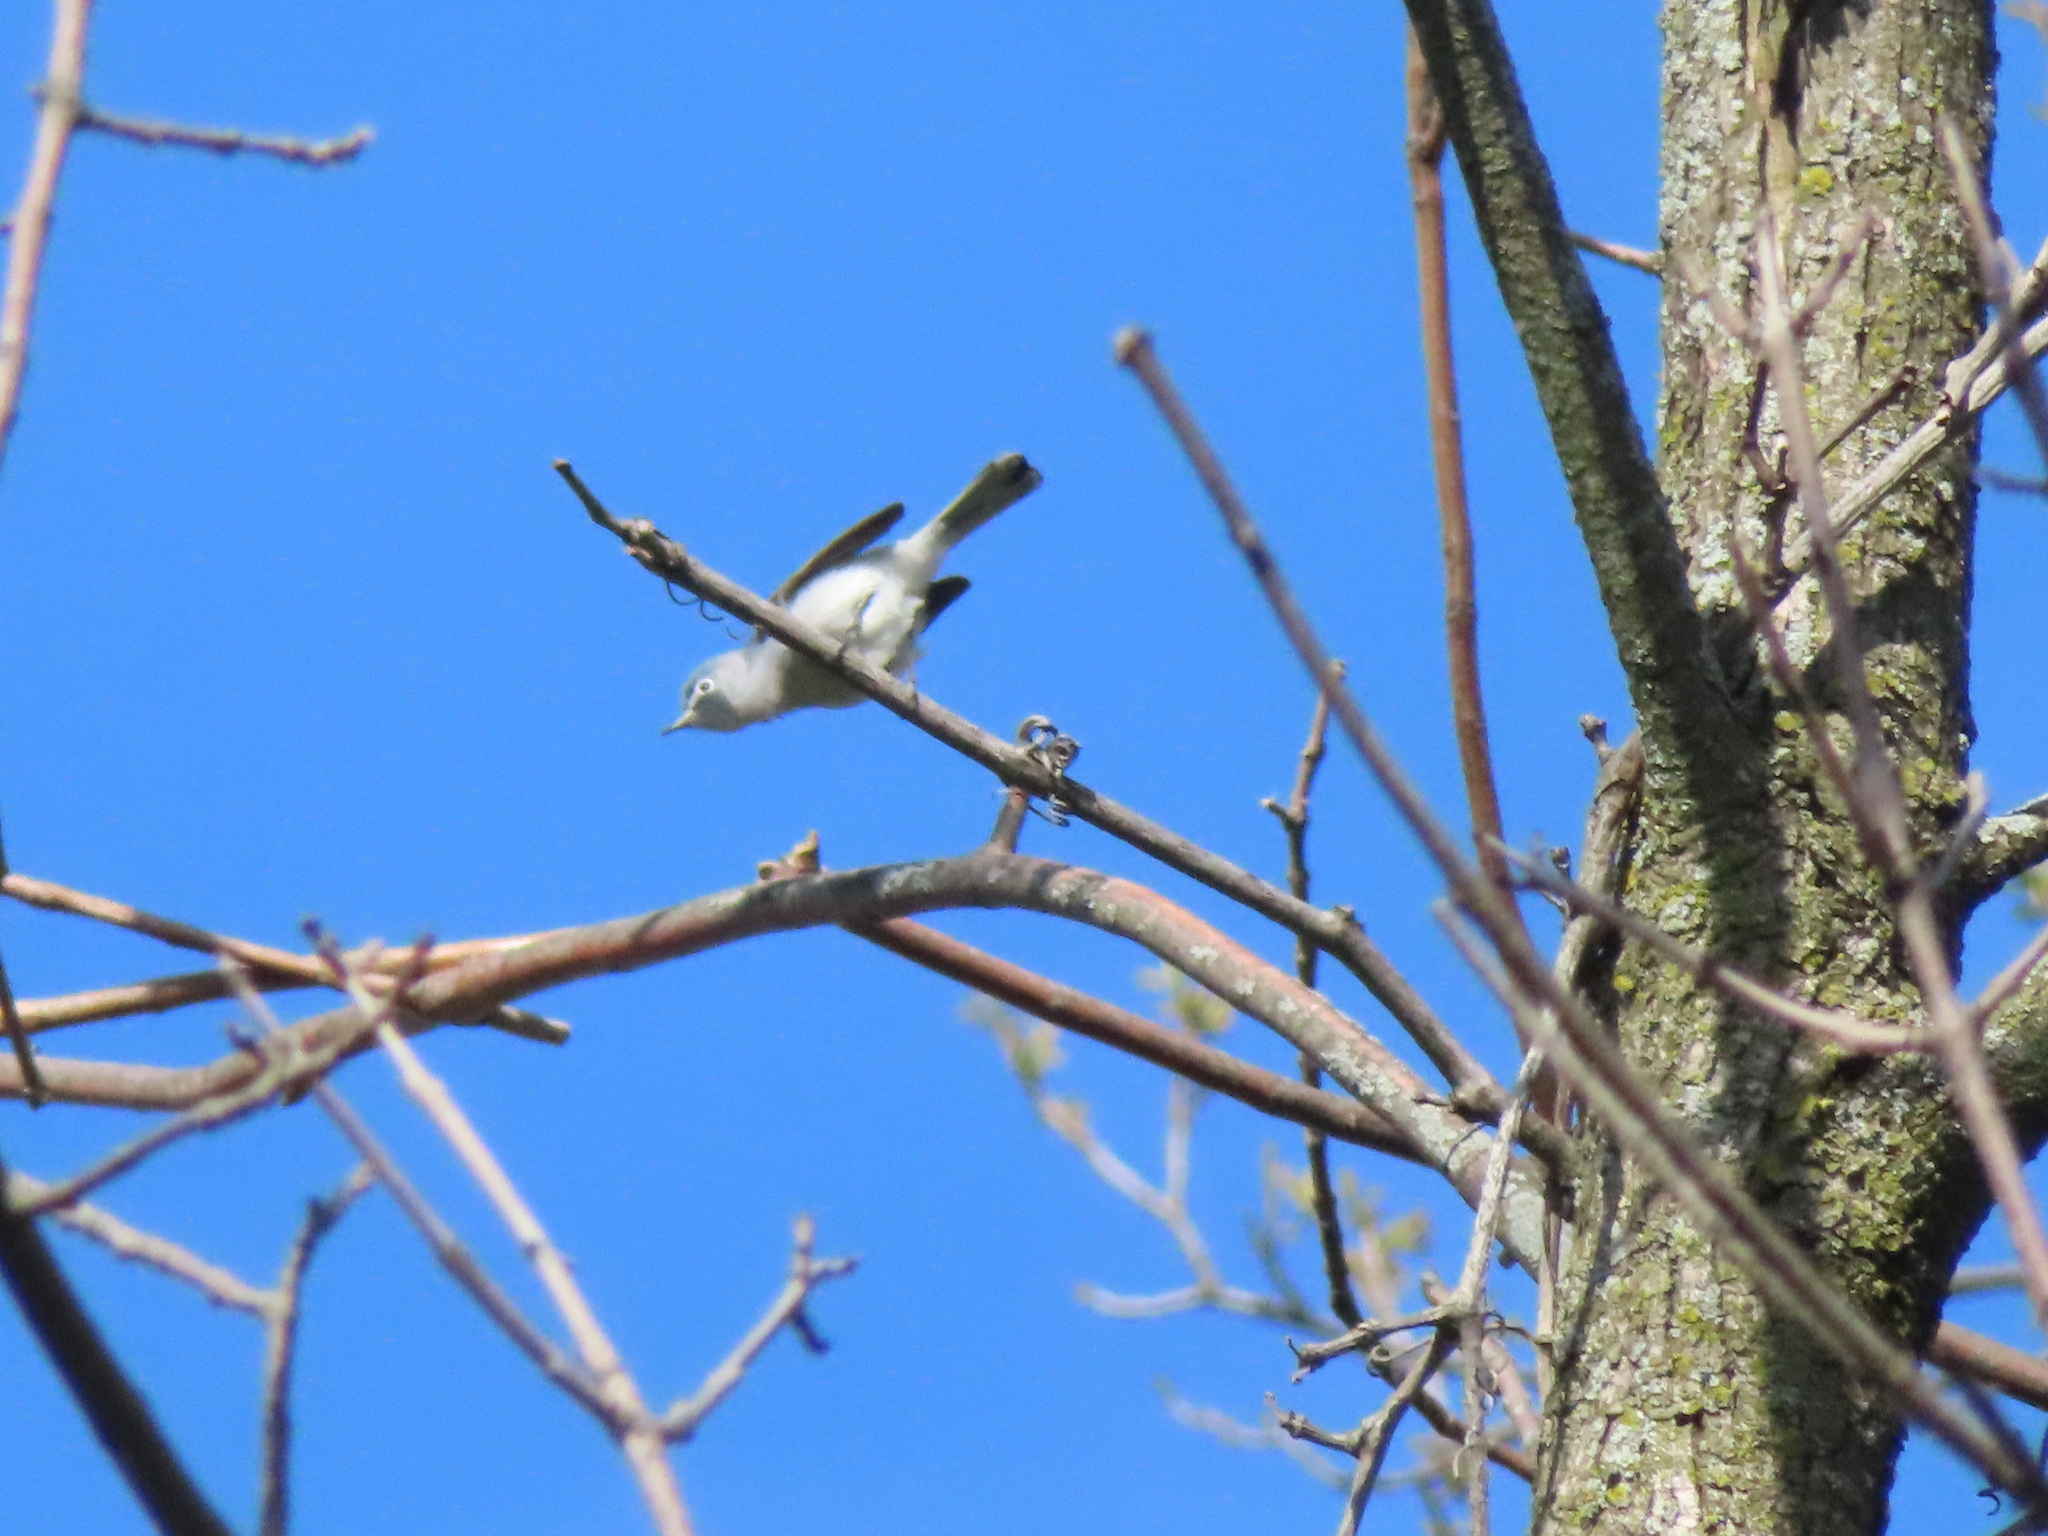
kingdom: Animalia
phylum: Chordata
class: Aves
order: Passeriformes
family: Polioptilidae
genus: Polioptila
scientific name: Polioptila caerulea
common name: Blue-gray gnatcatcher
